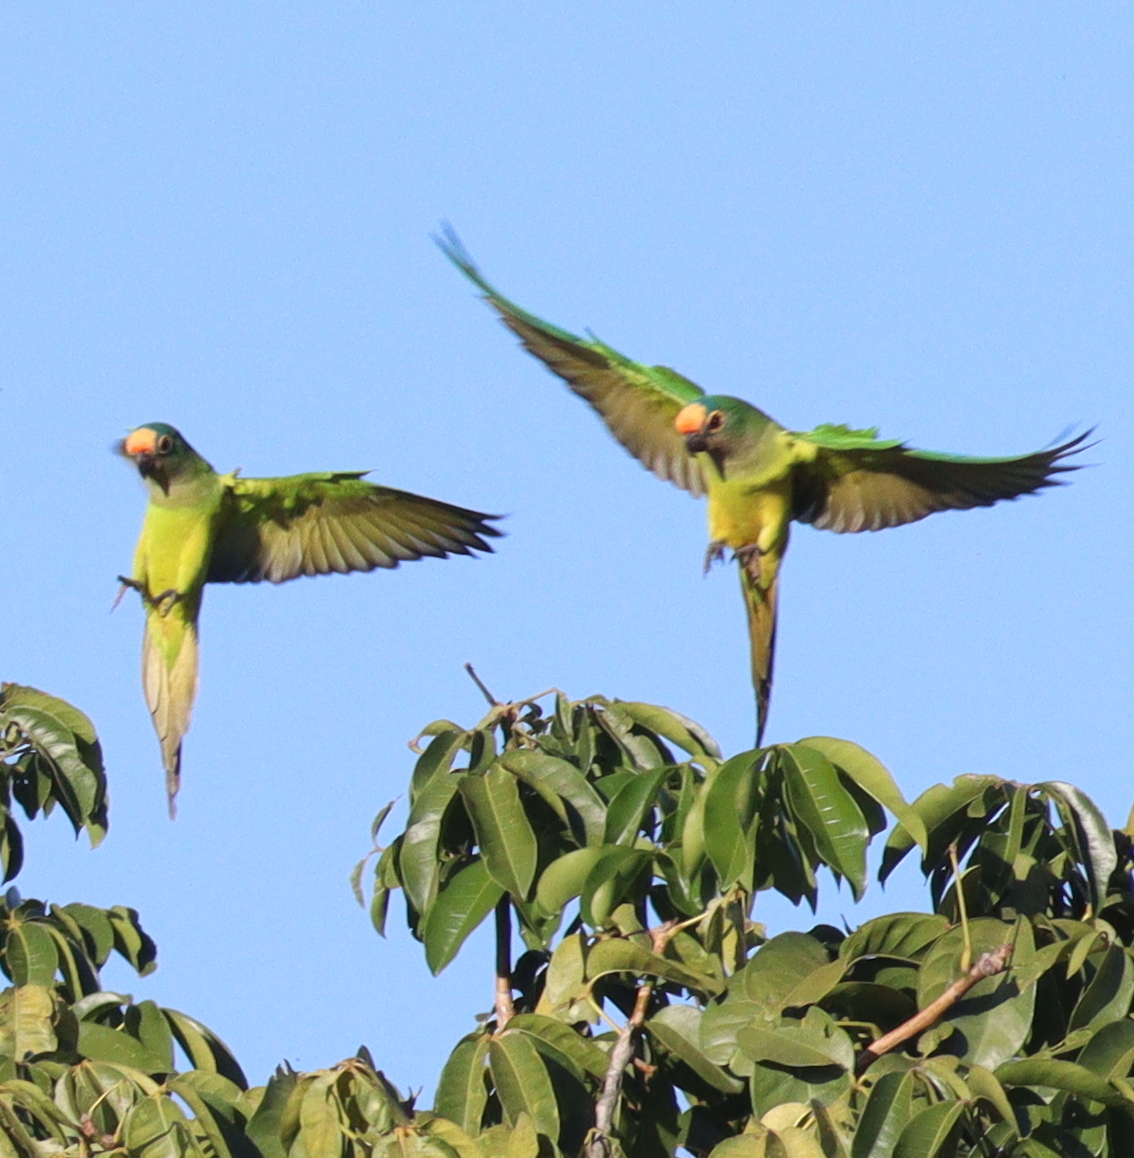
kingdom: Animalia
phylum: Chordata
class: Aves
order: Psittaciformes
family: Psittacidae
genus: Aratinga
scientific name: Aratinga aurea
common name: Peach-fronted parakeet
